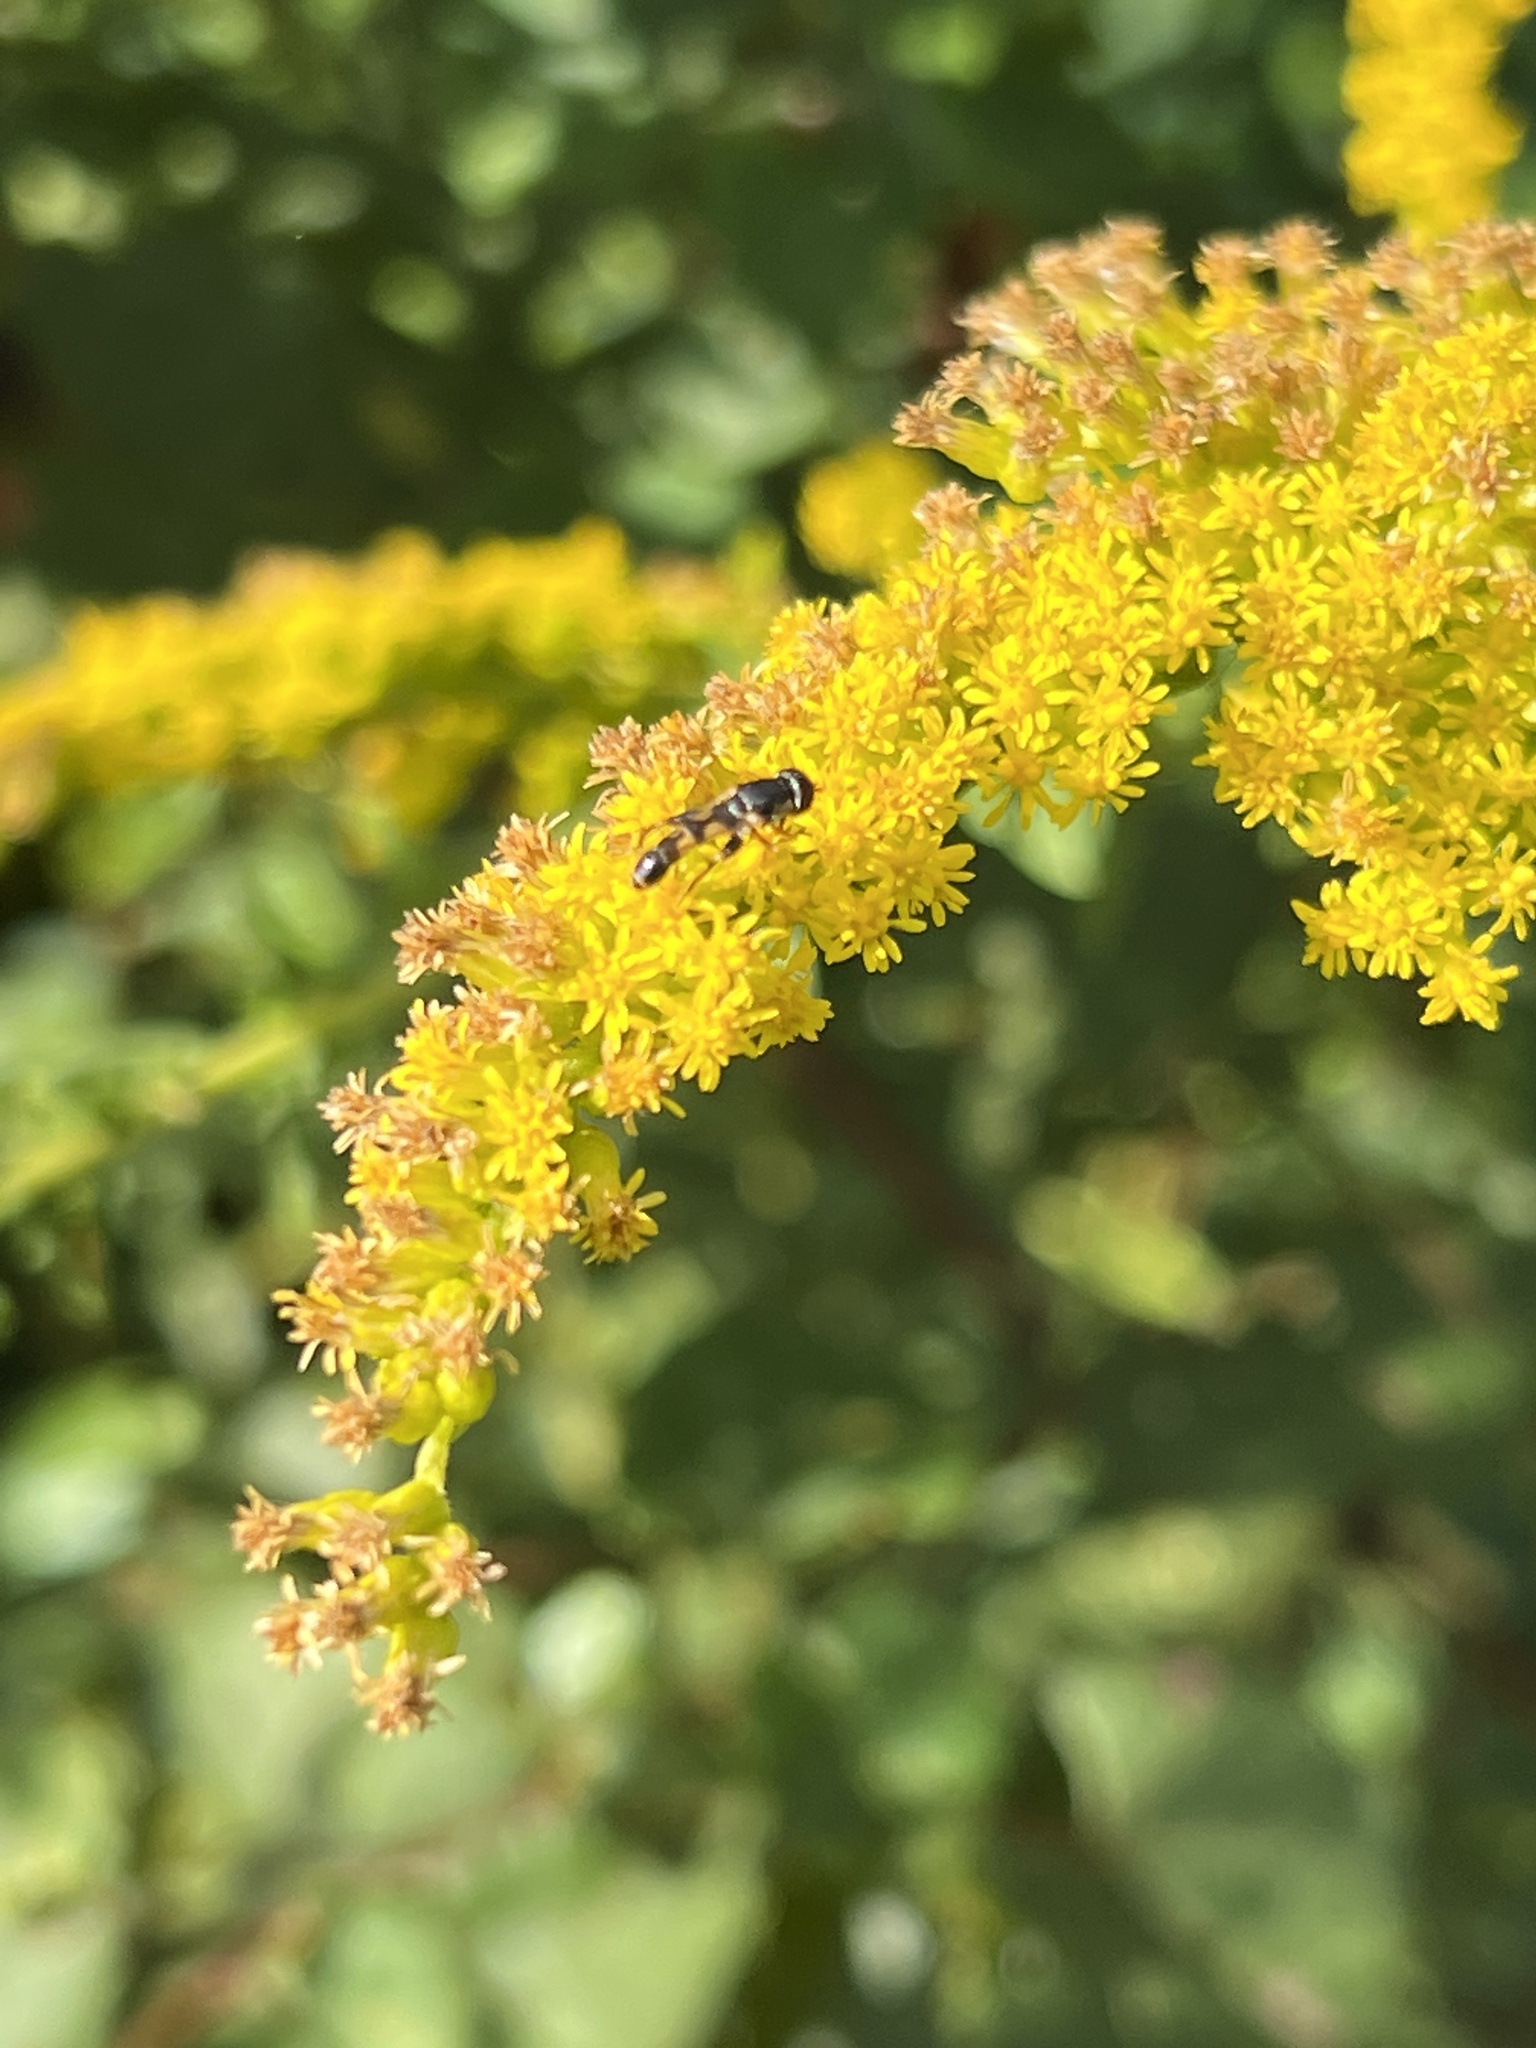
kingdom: Animalia
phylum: Arthropoda
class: Insecta
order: Diptera
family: Syrphidae
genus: Syritta
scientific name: Syritta pipiens
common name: Hover fly
